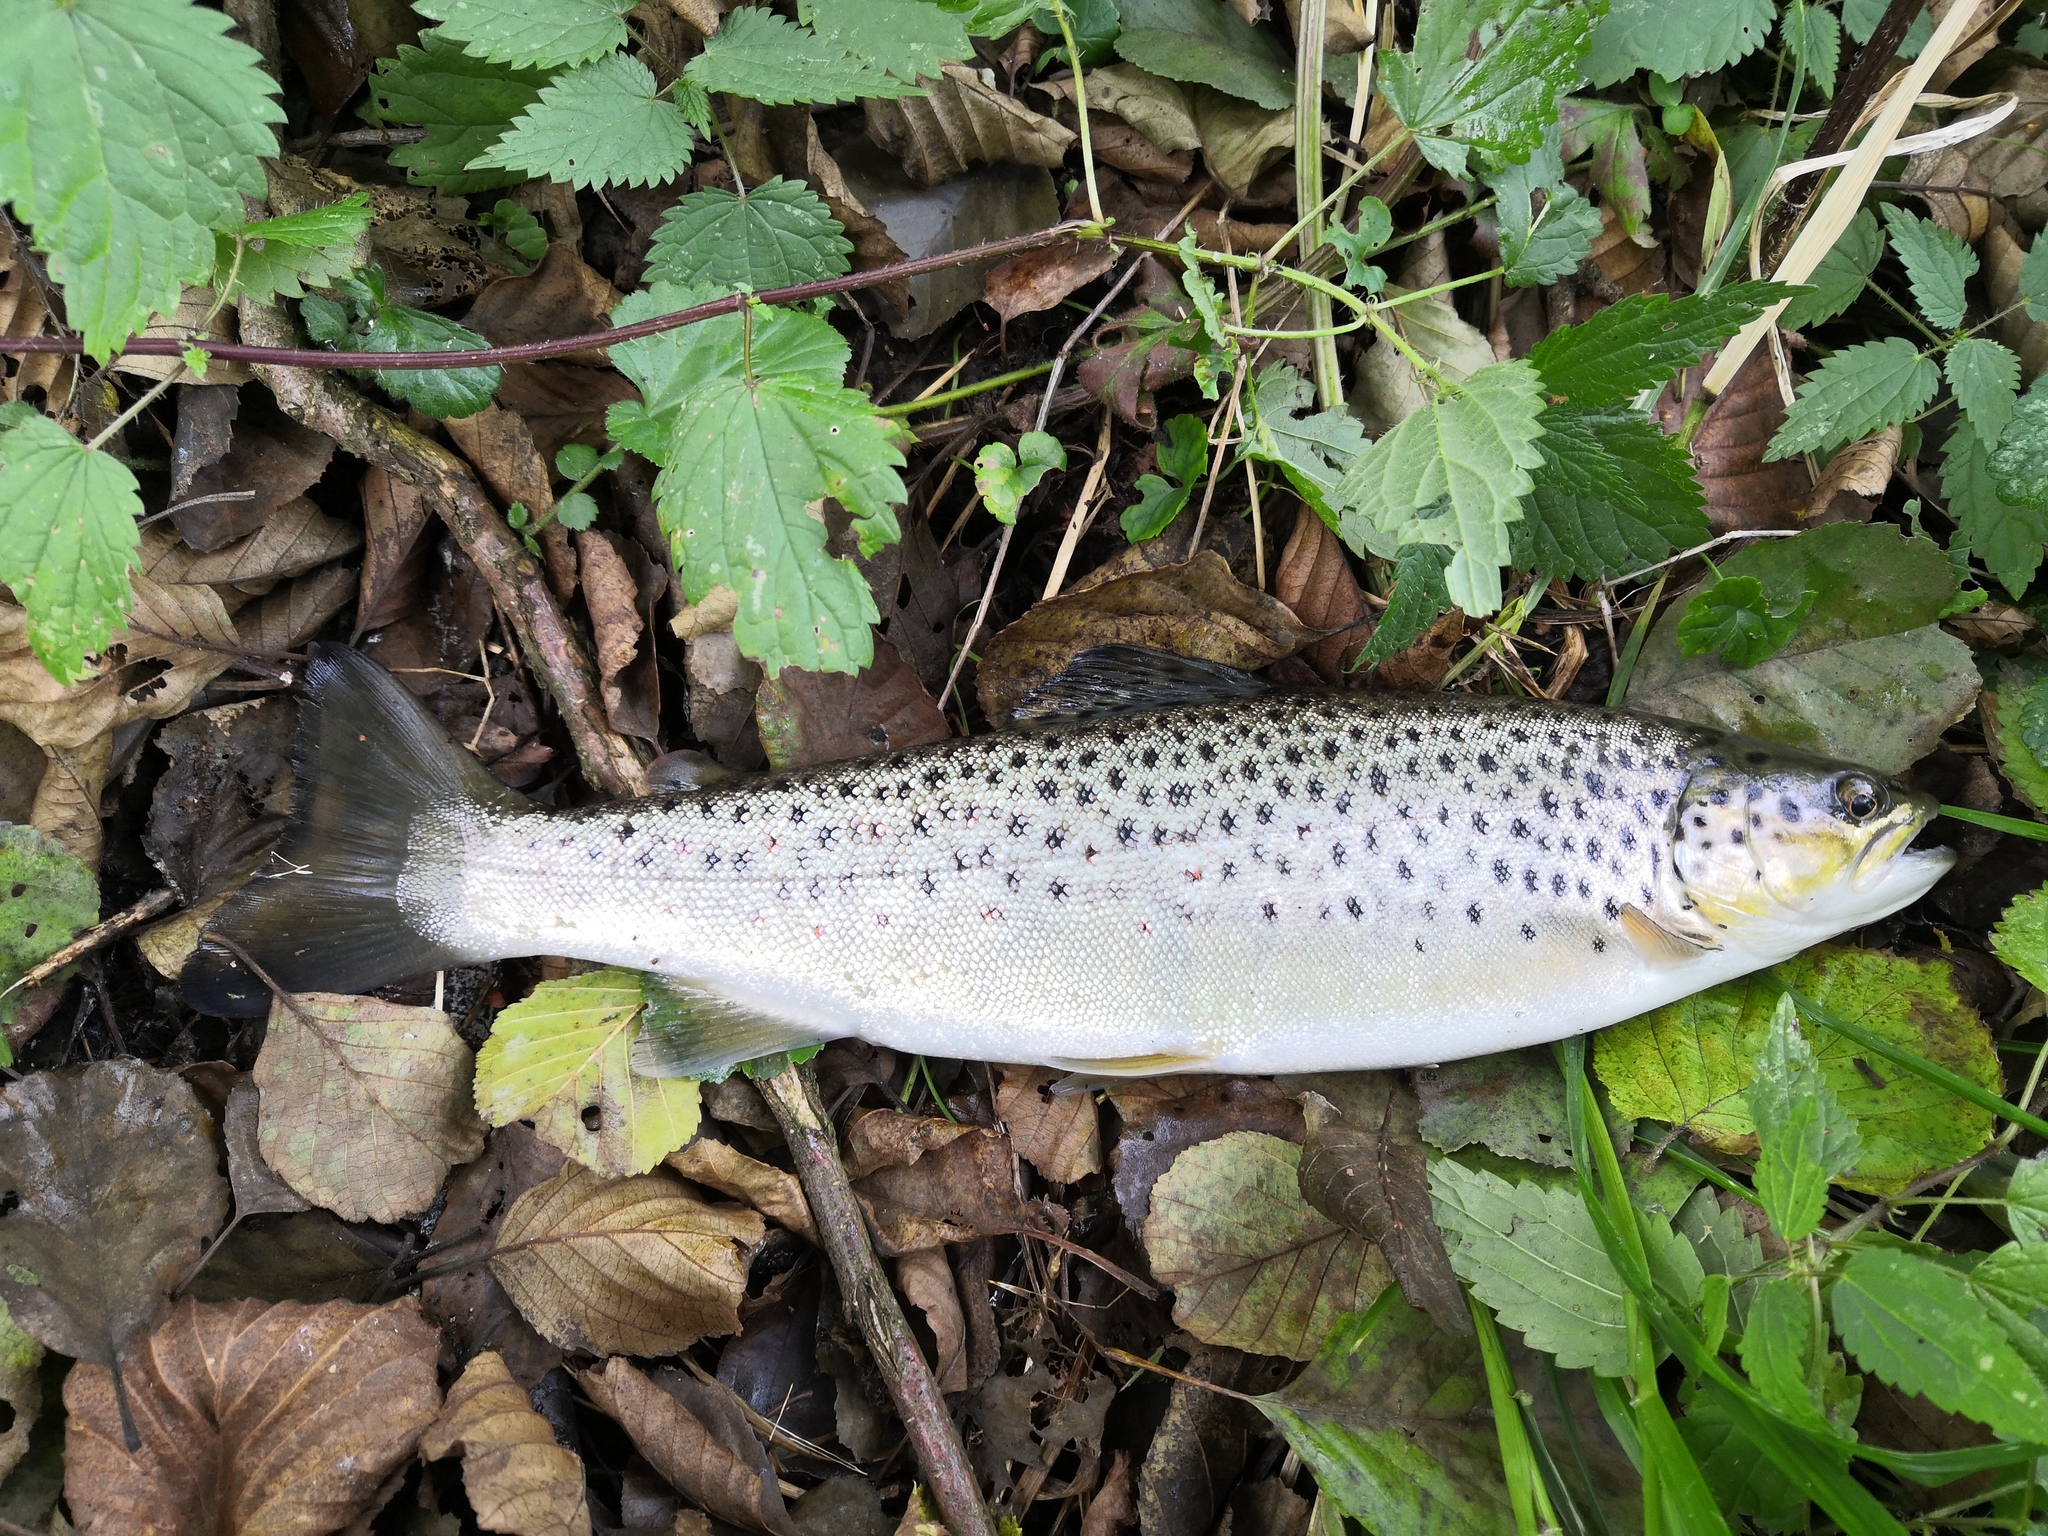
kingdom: Animalia
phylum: Chordata
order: Salmoniformes
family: Salmonidae
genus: Salmo
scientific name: Salmo trutta
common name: Brown trout
